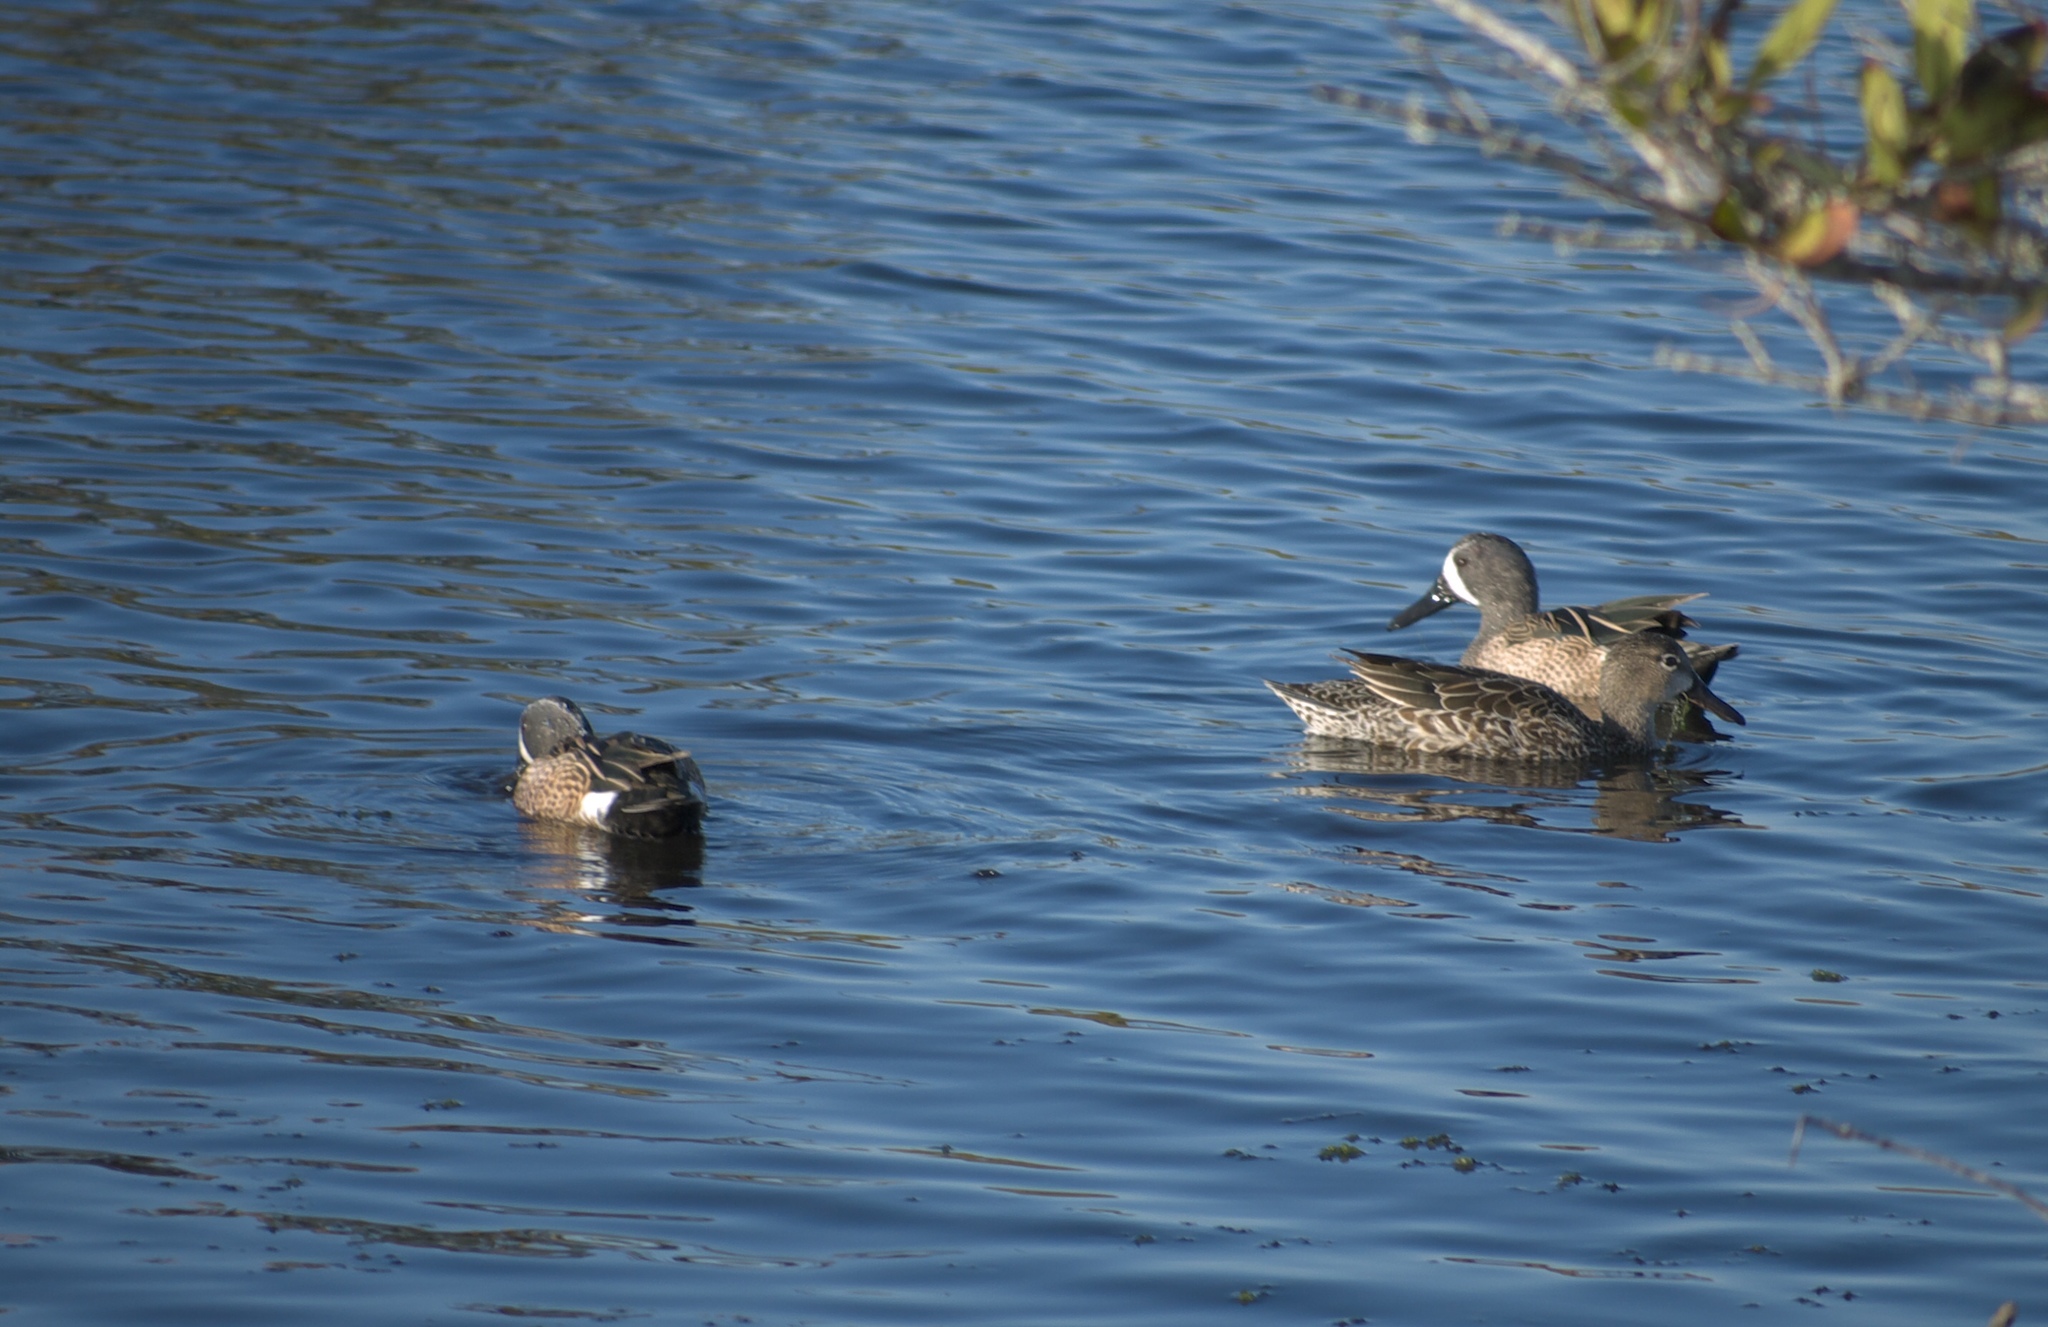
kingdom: Animalia
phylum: Chordata
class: Aves
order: Anseriformes
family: Anatidae
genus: Spatula
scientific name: Spatula discors
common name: Blue-winged teal
